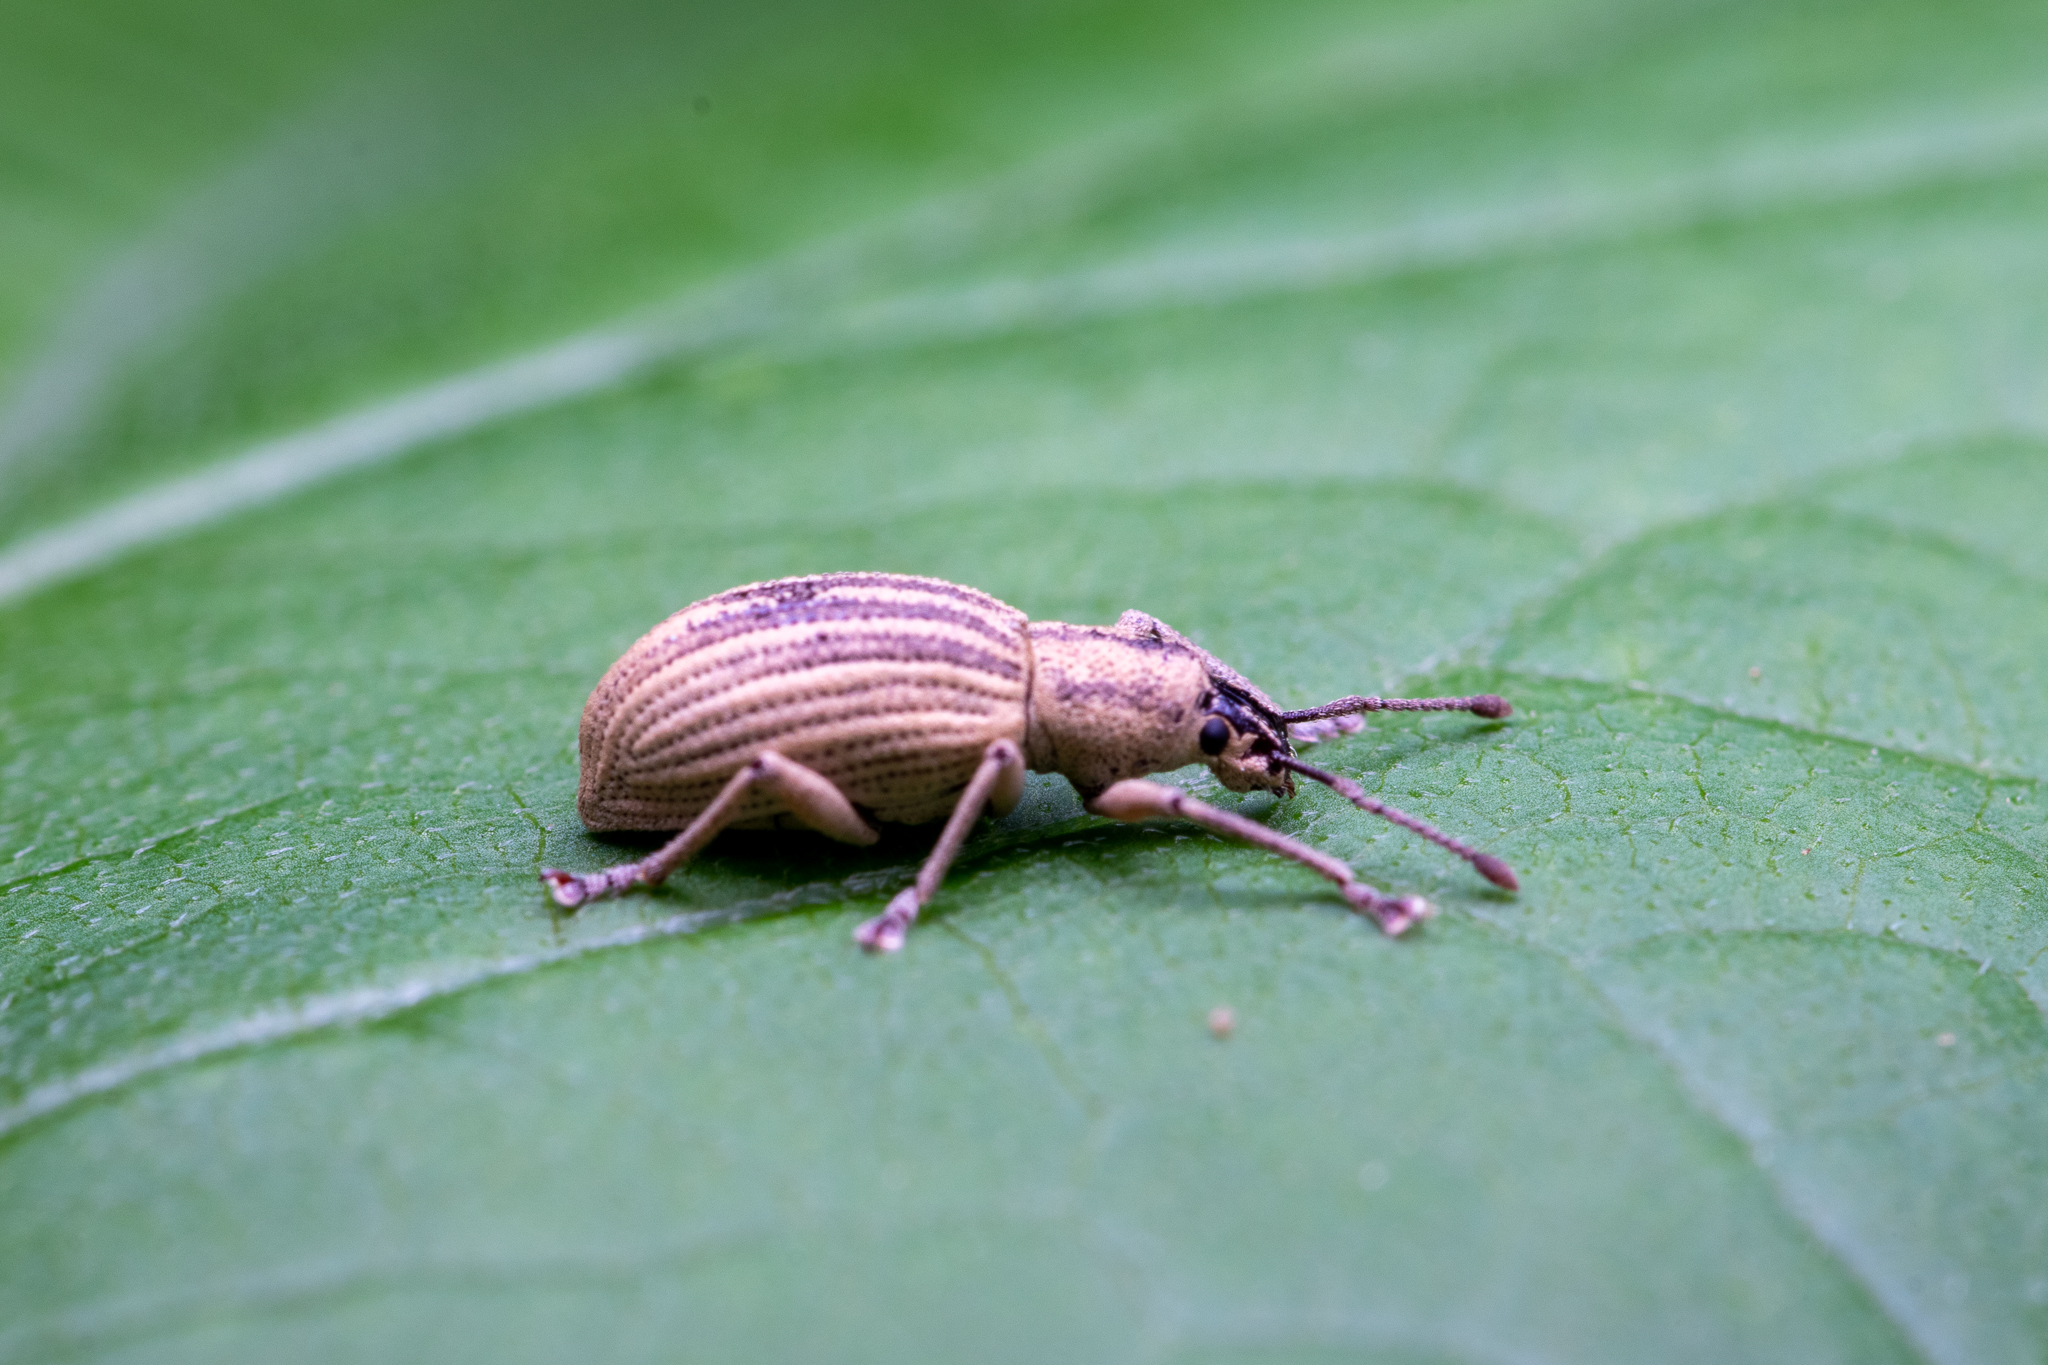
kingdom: Animalia
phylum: Arthropoda
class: Insecta
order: Coleoptera
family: Curculionidae
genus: Aphrastus
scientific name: Aphrastus taeniatus
